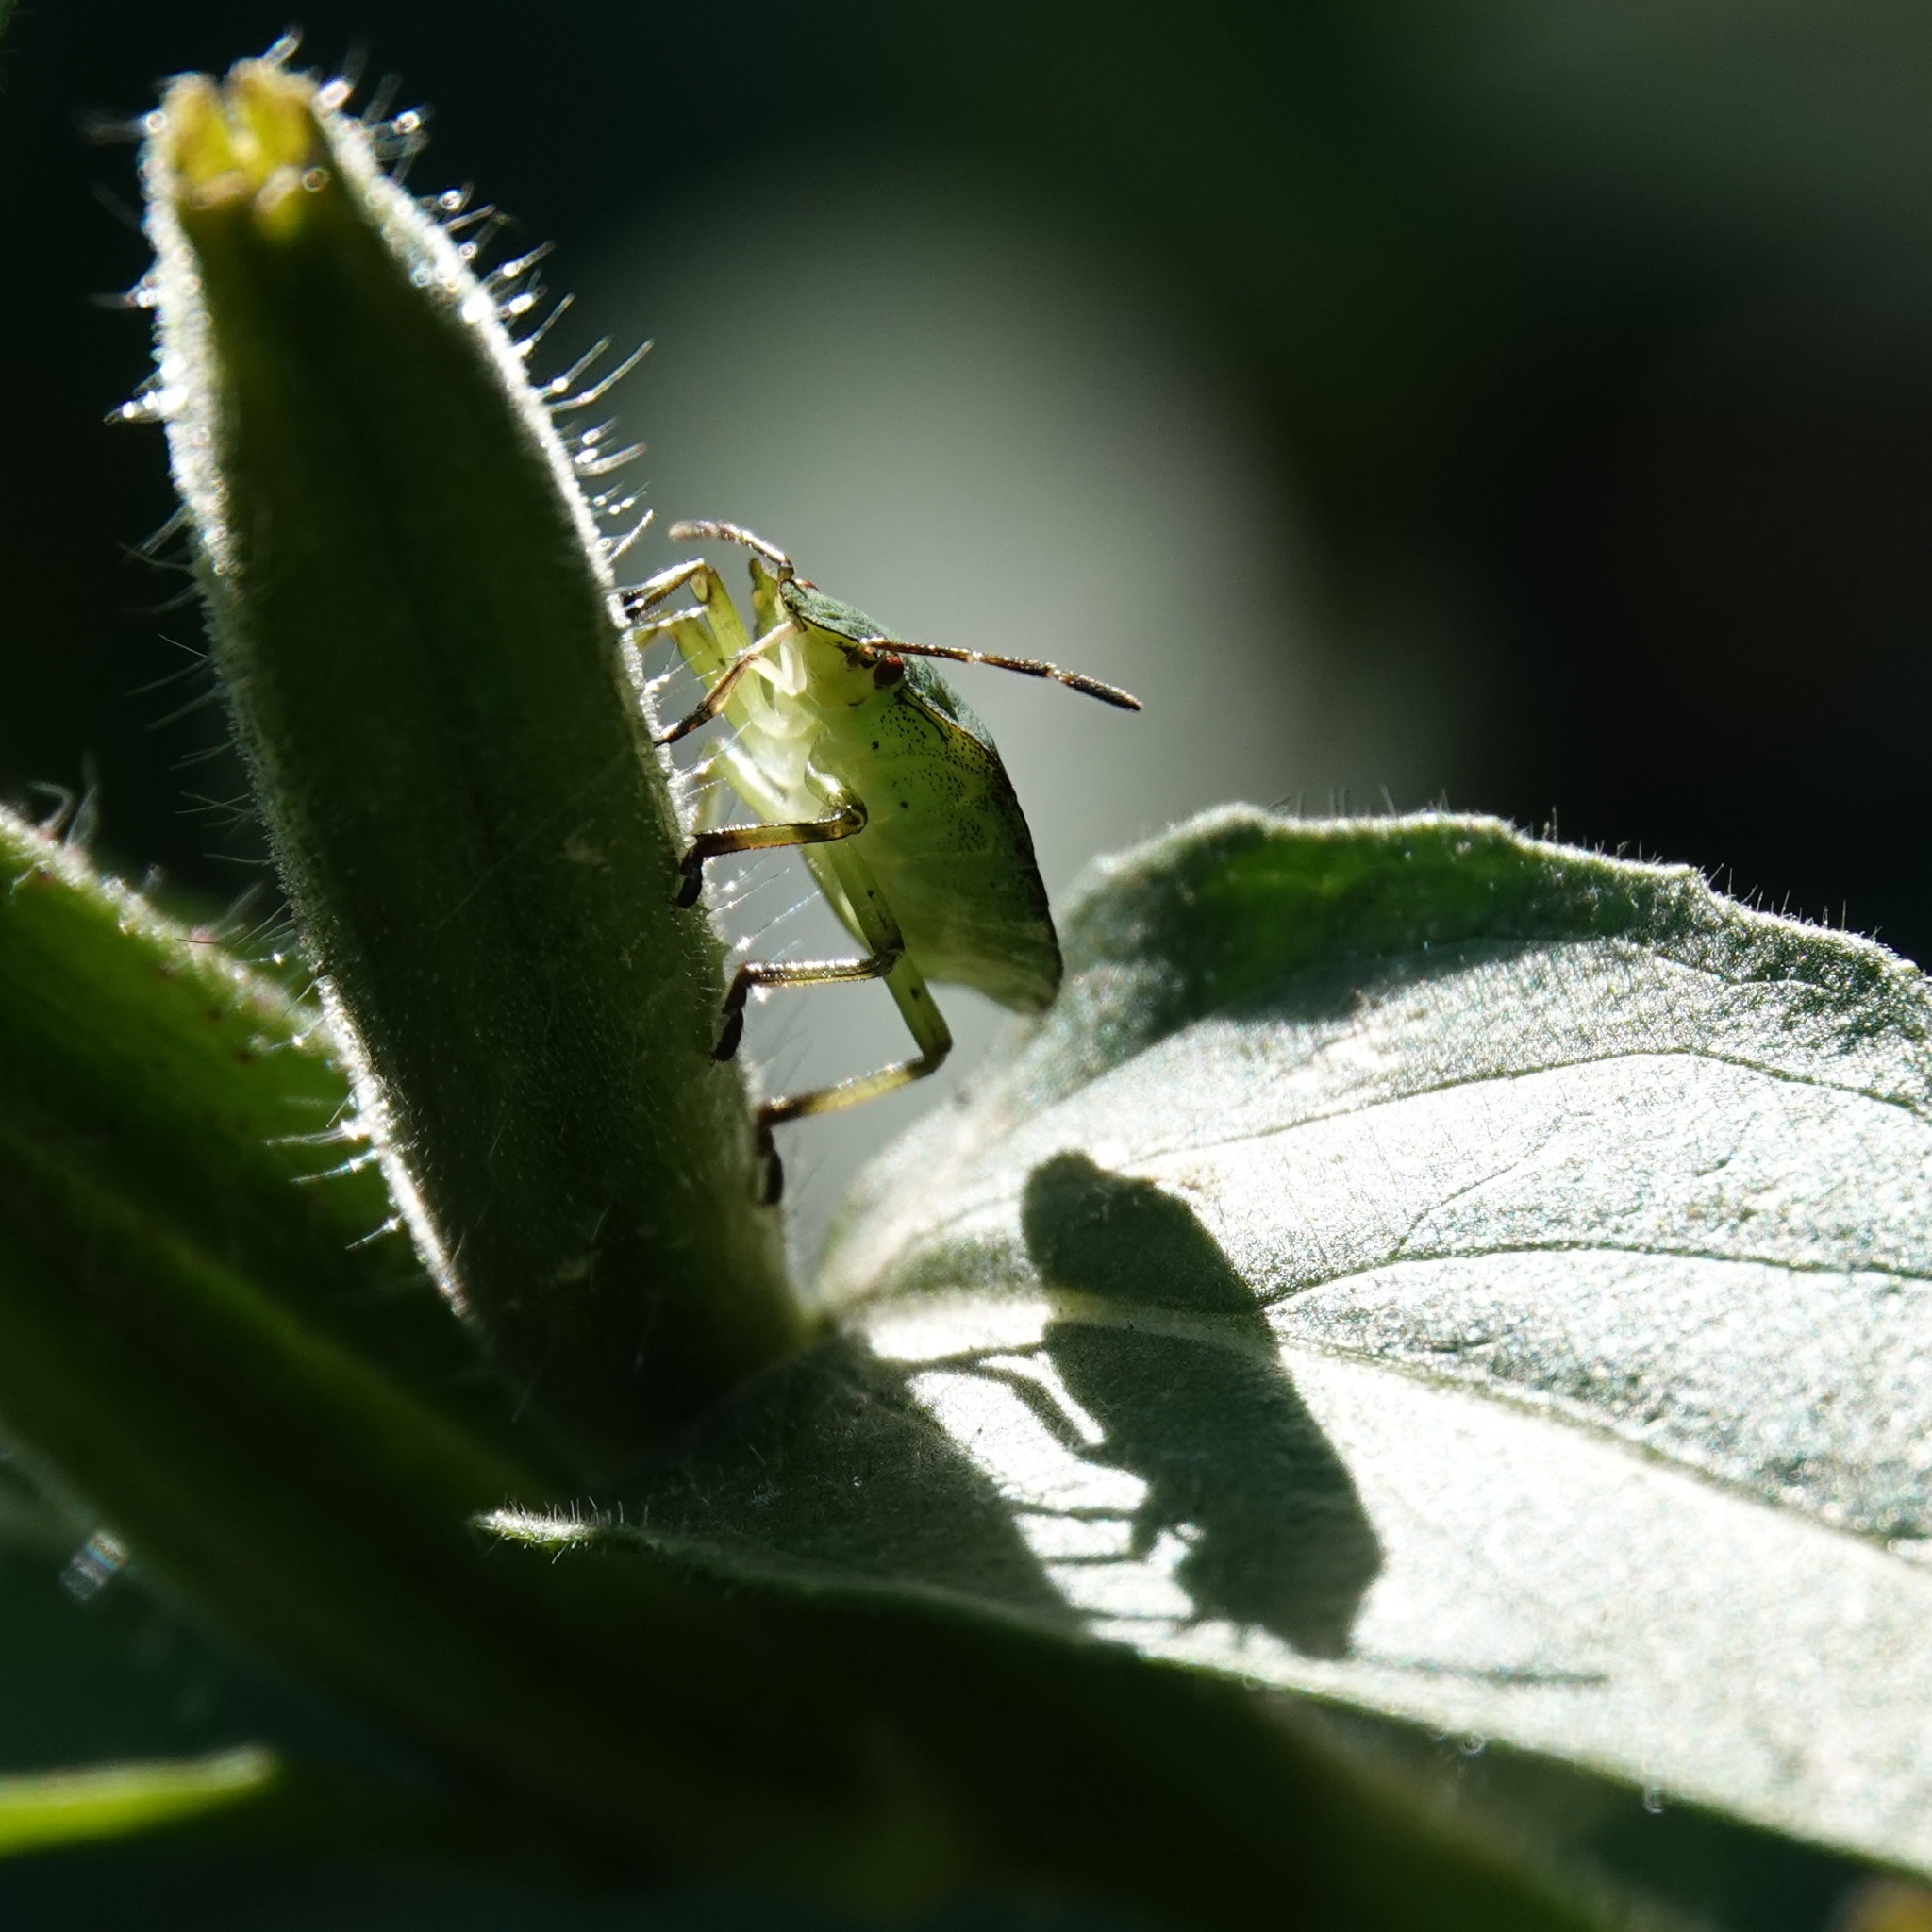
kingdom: Animalia
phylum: Arthropoda
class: Insecta
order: Hemiptera
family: Pentatomidae
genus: Palomena
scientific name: Palomena prasina
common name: Green shieldbug
